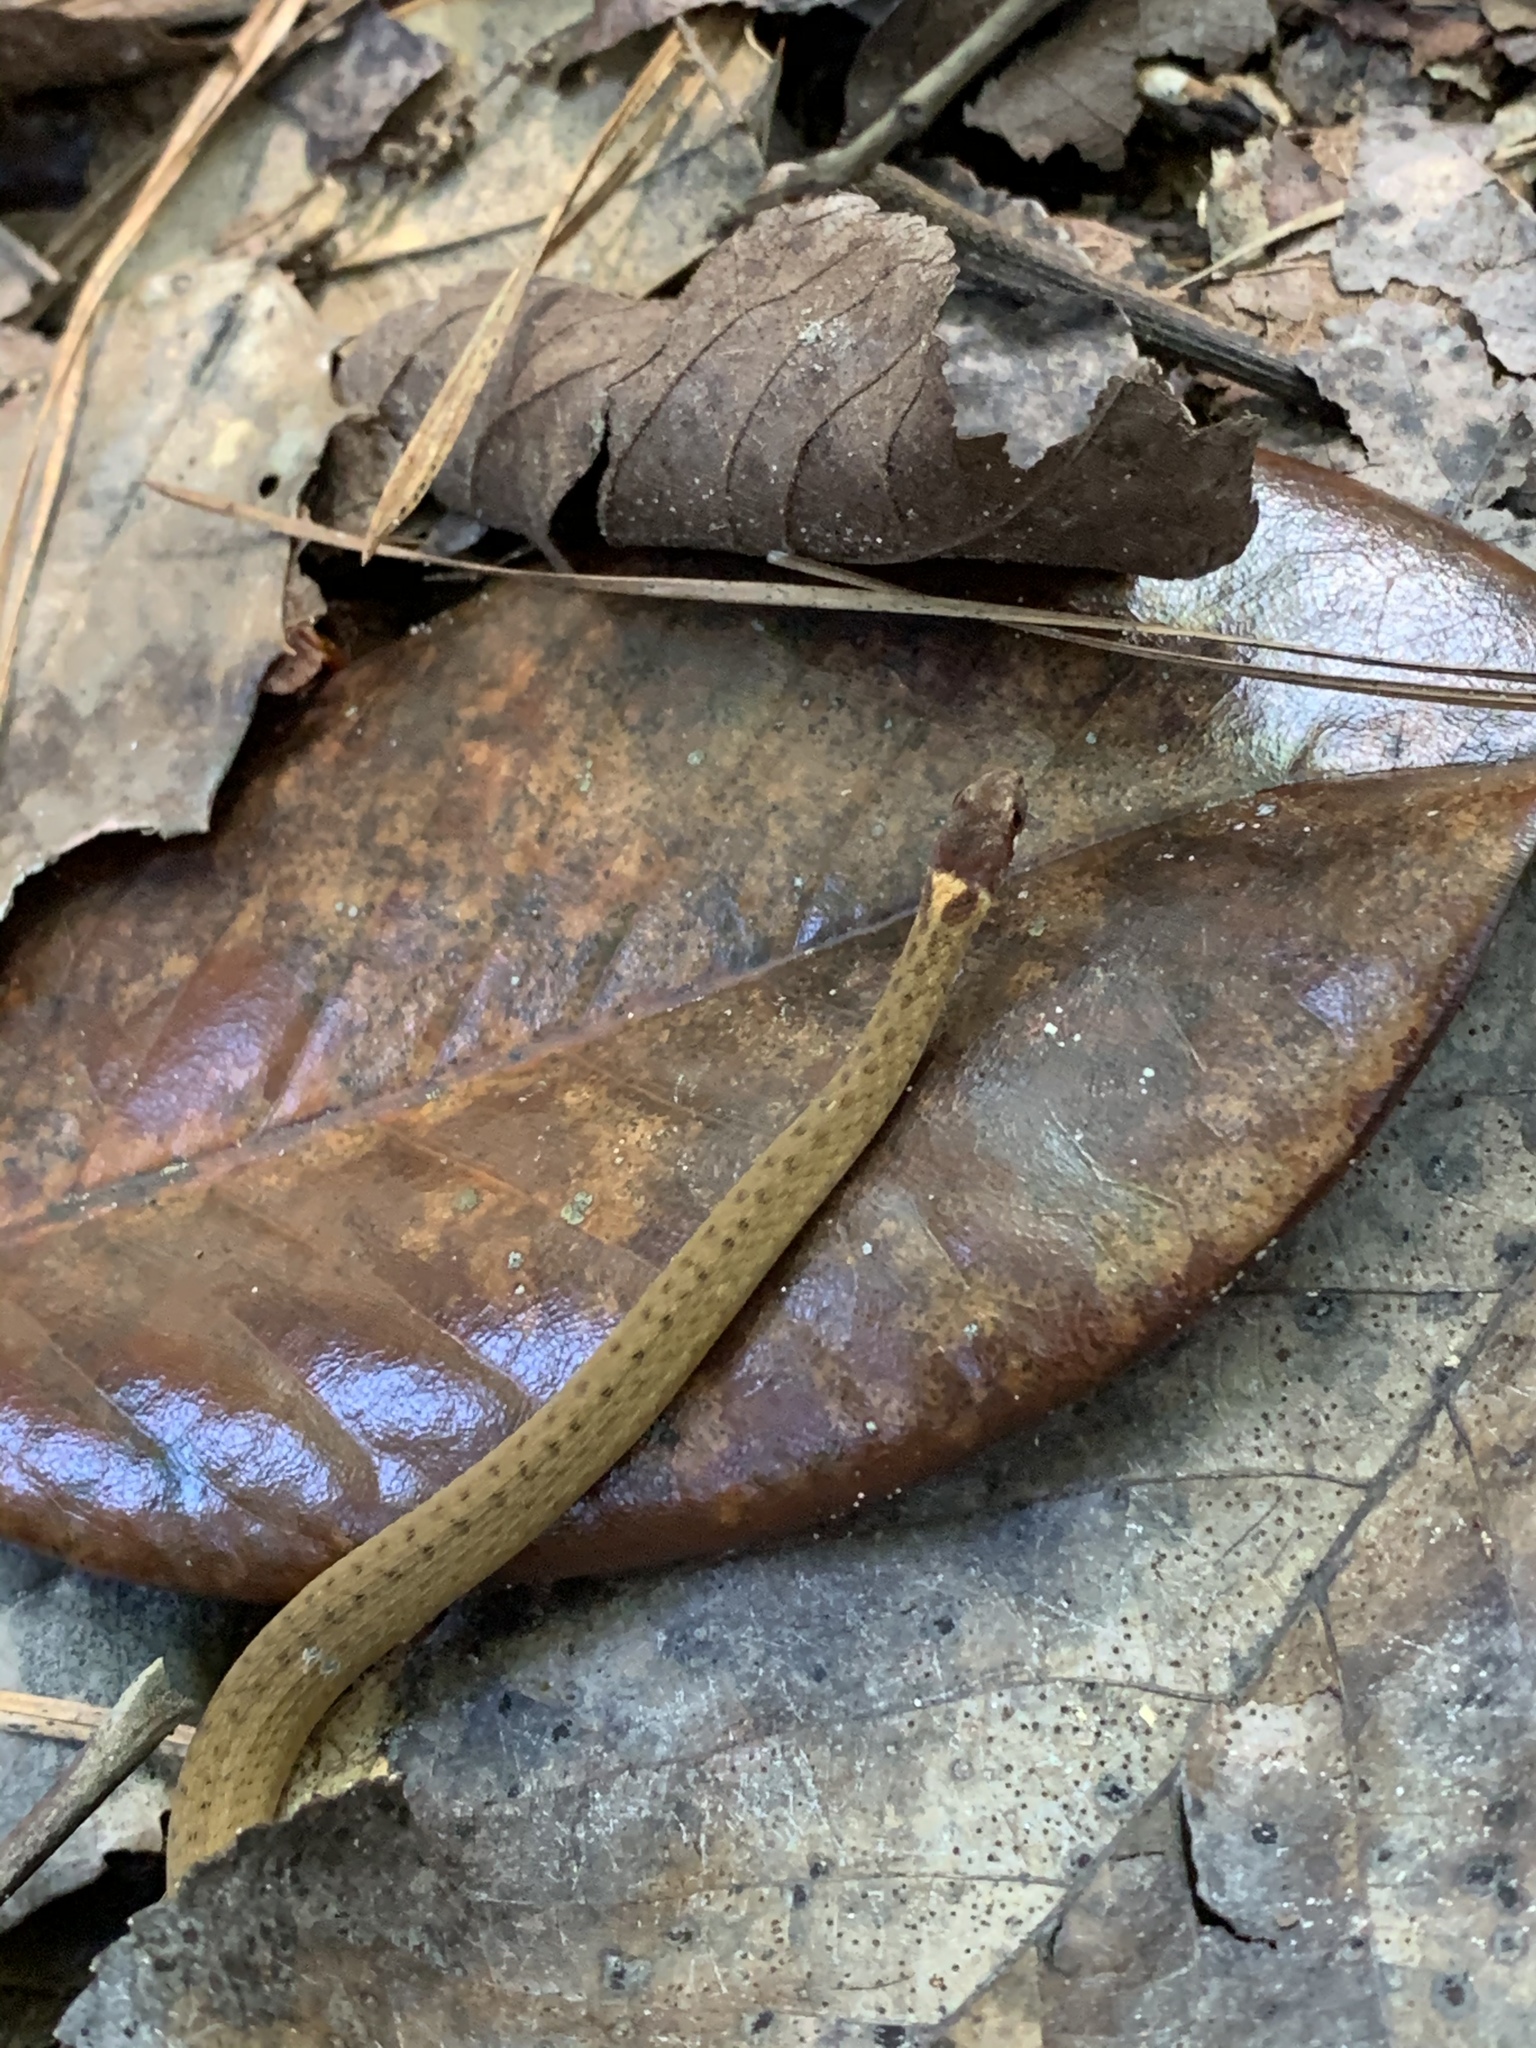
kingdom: Animalia
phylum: Chordata
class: Squamata
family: Colubridae
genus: Storeria
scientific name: Storeria dekayi
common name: (dekay’s) brown snake
